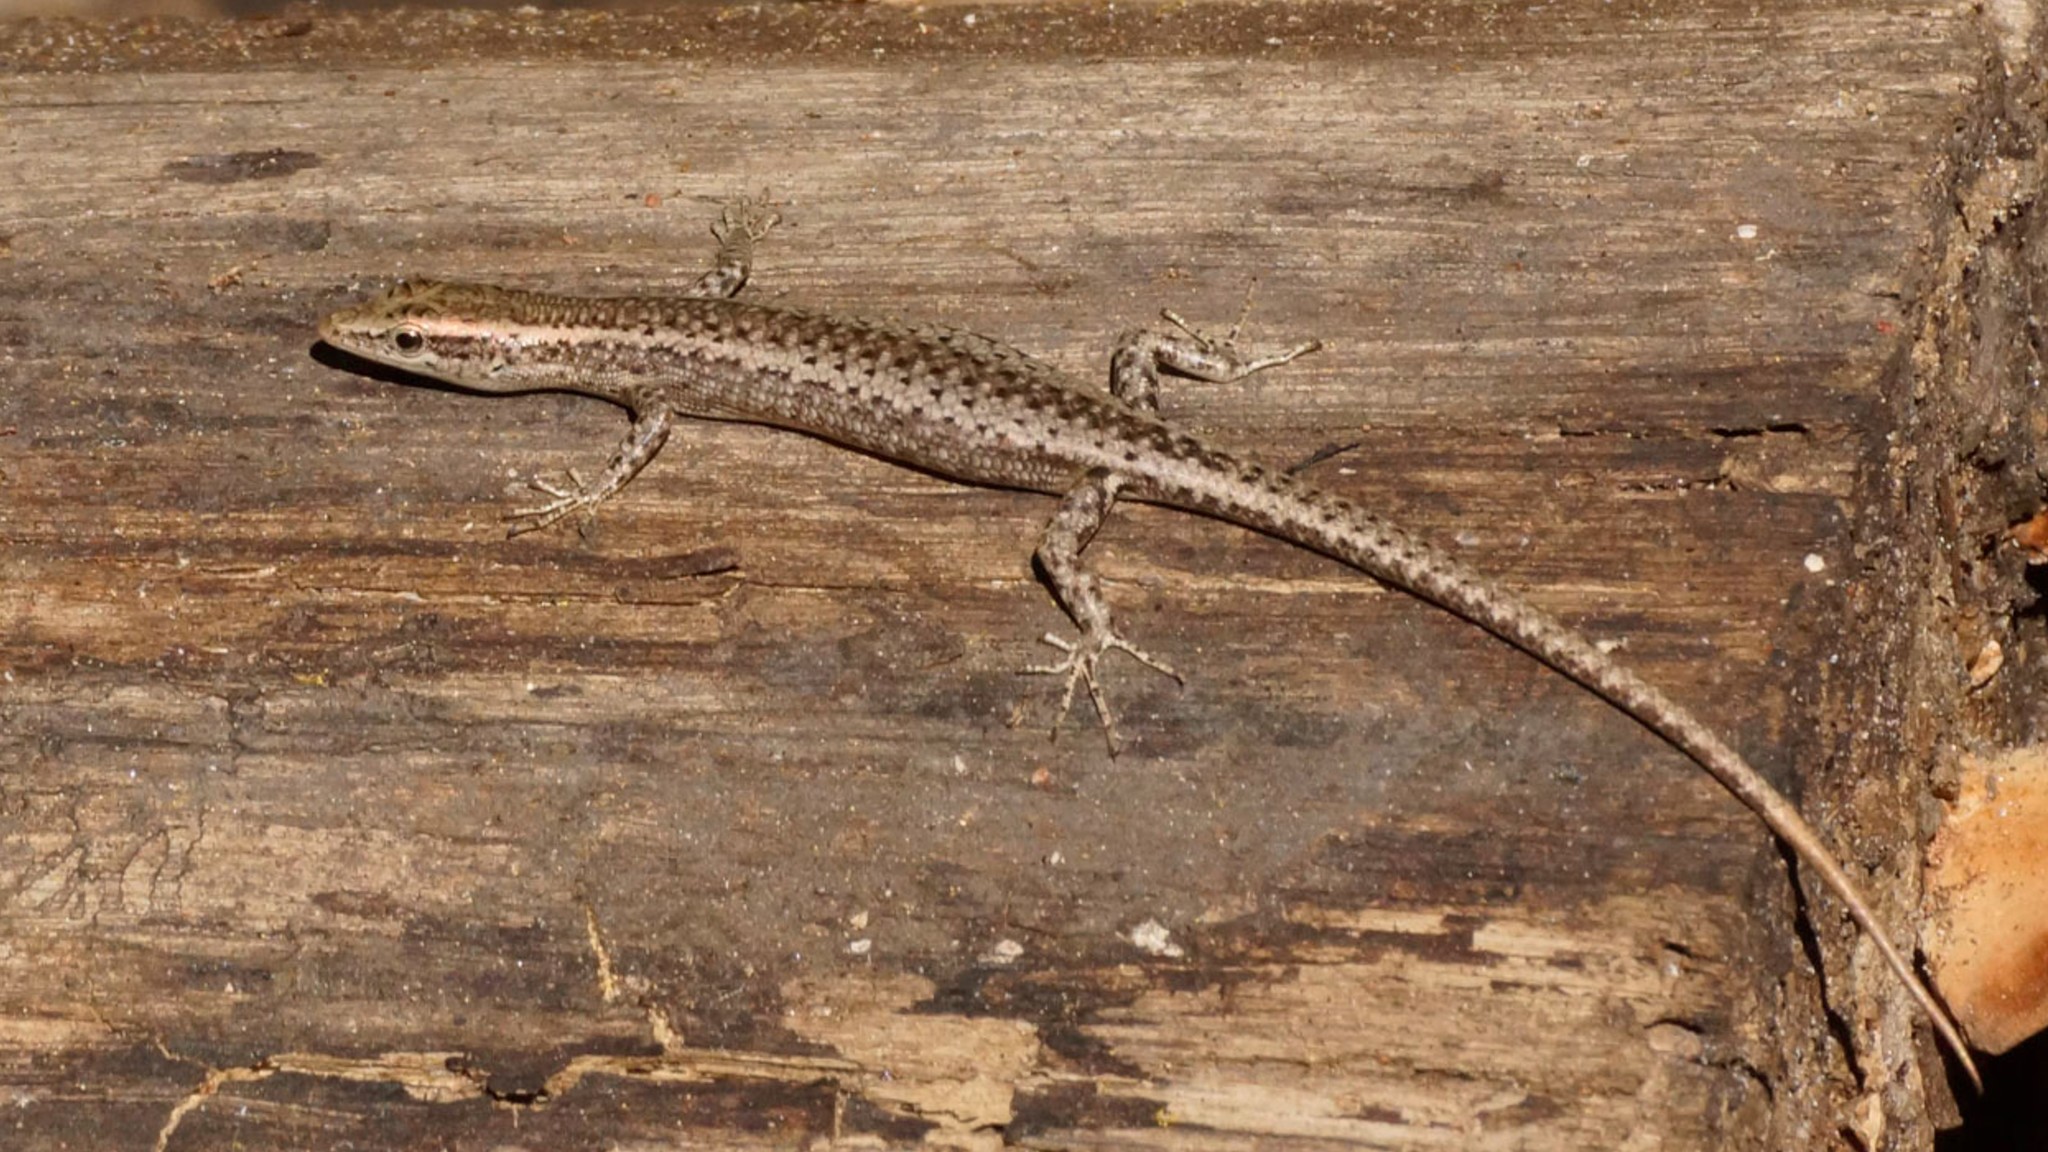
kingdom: Animalia
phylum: Chordata
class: Squamata
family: Scincidae
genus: Cryptoblepharus
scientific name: Cryptoblepharus cygnatus
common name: Swanson’s snake-eyed skink
